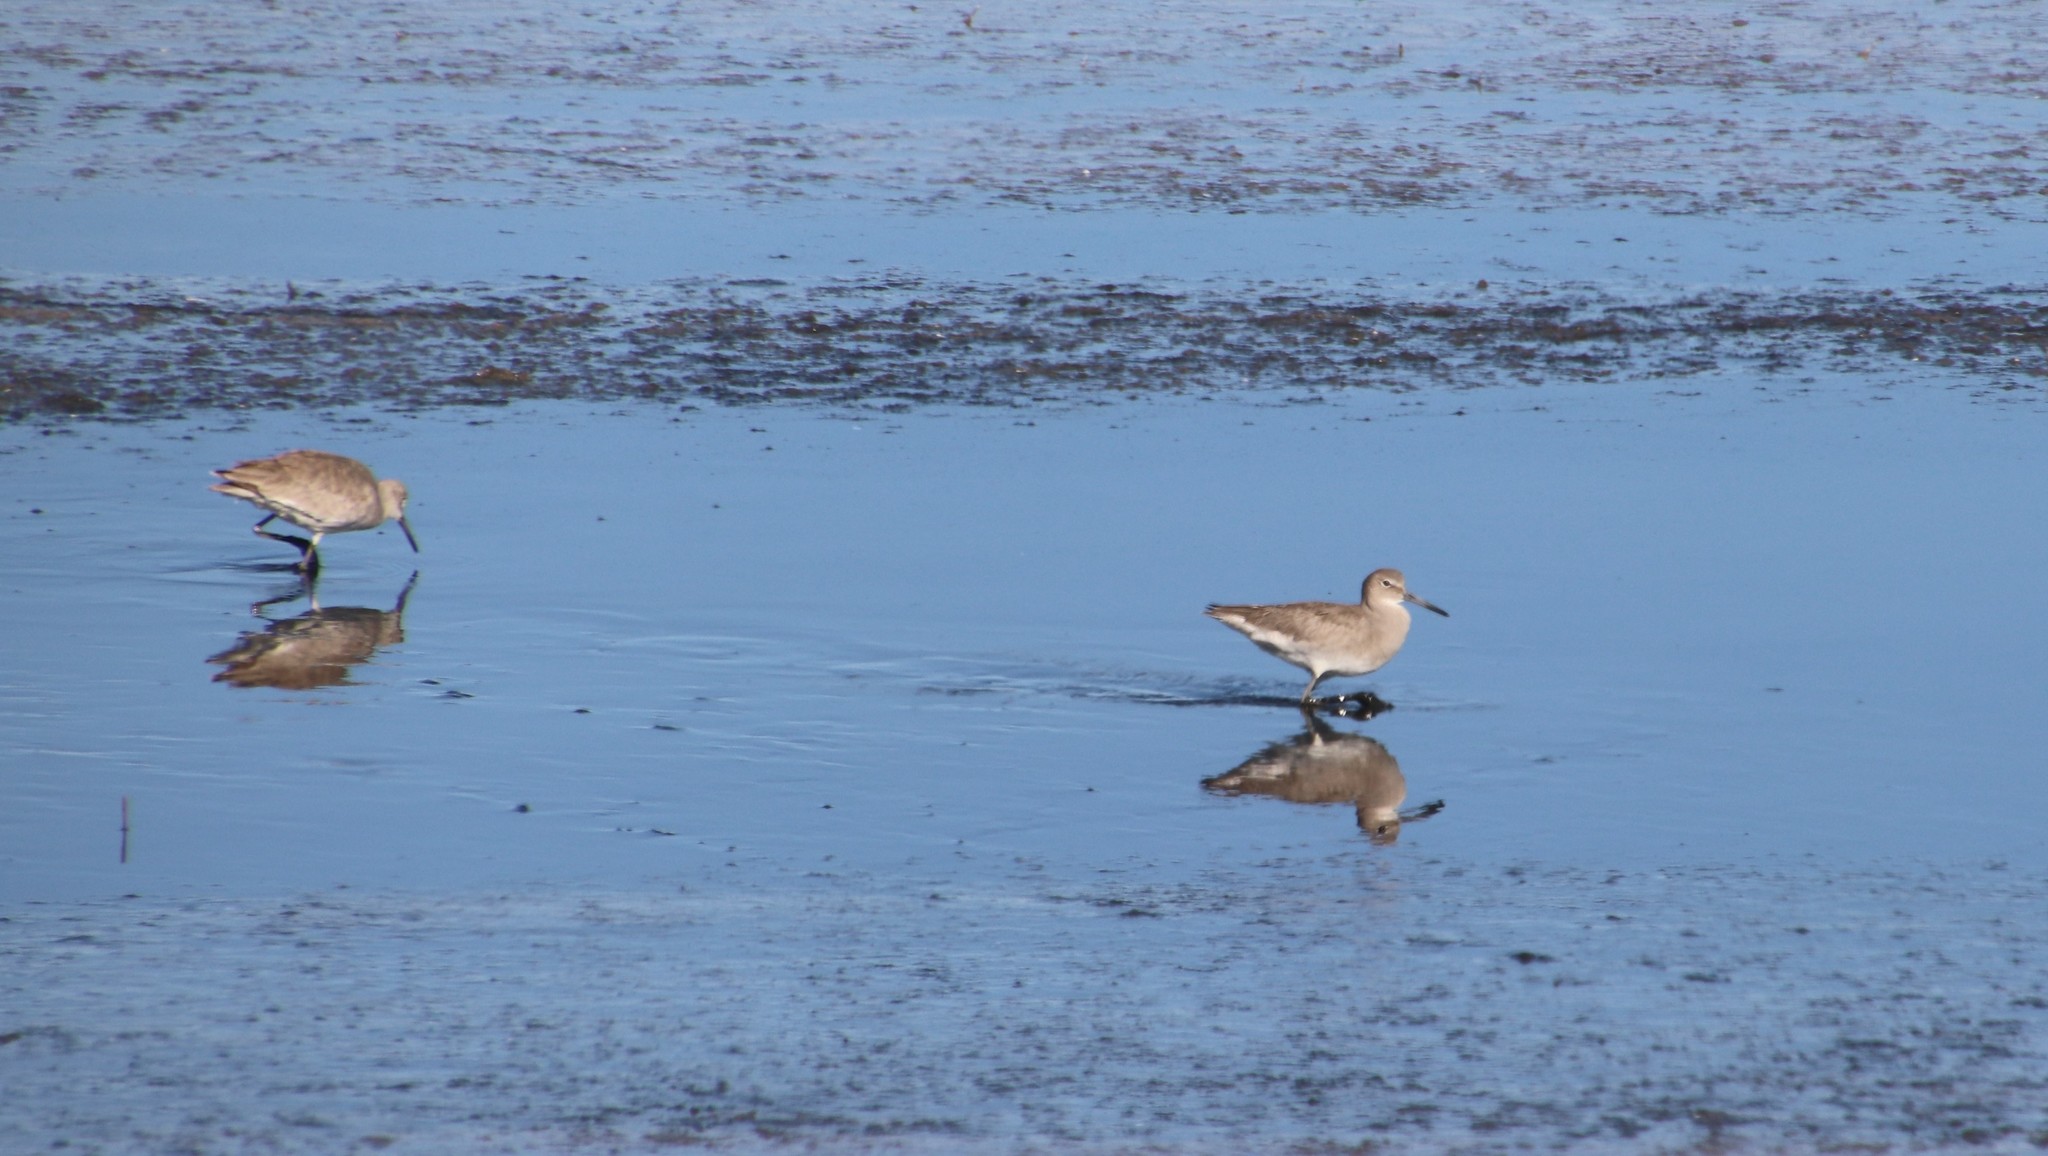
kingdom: Animalia
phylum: Chordata
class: Aves
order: Charadriiformes
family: Scolopacidae
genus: Tringa
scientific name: Tringa semipalmata
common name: Willet
